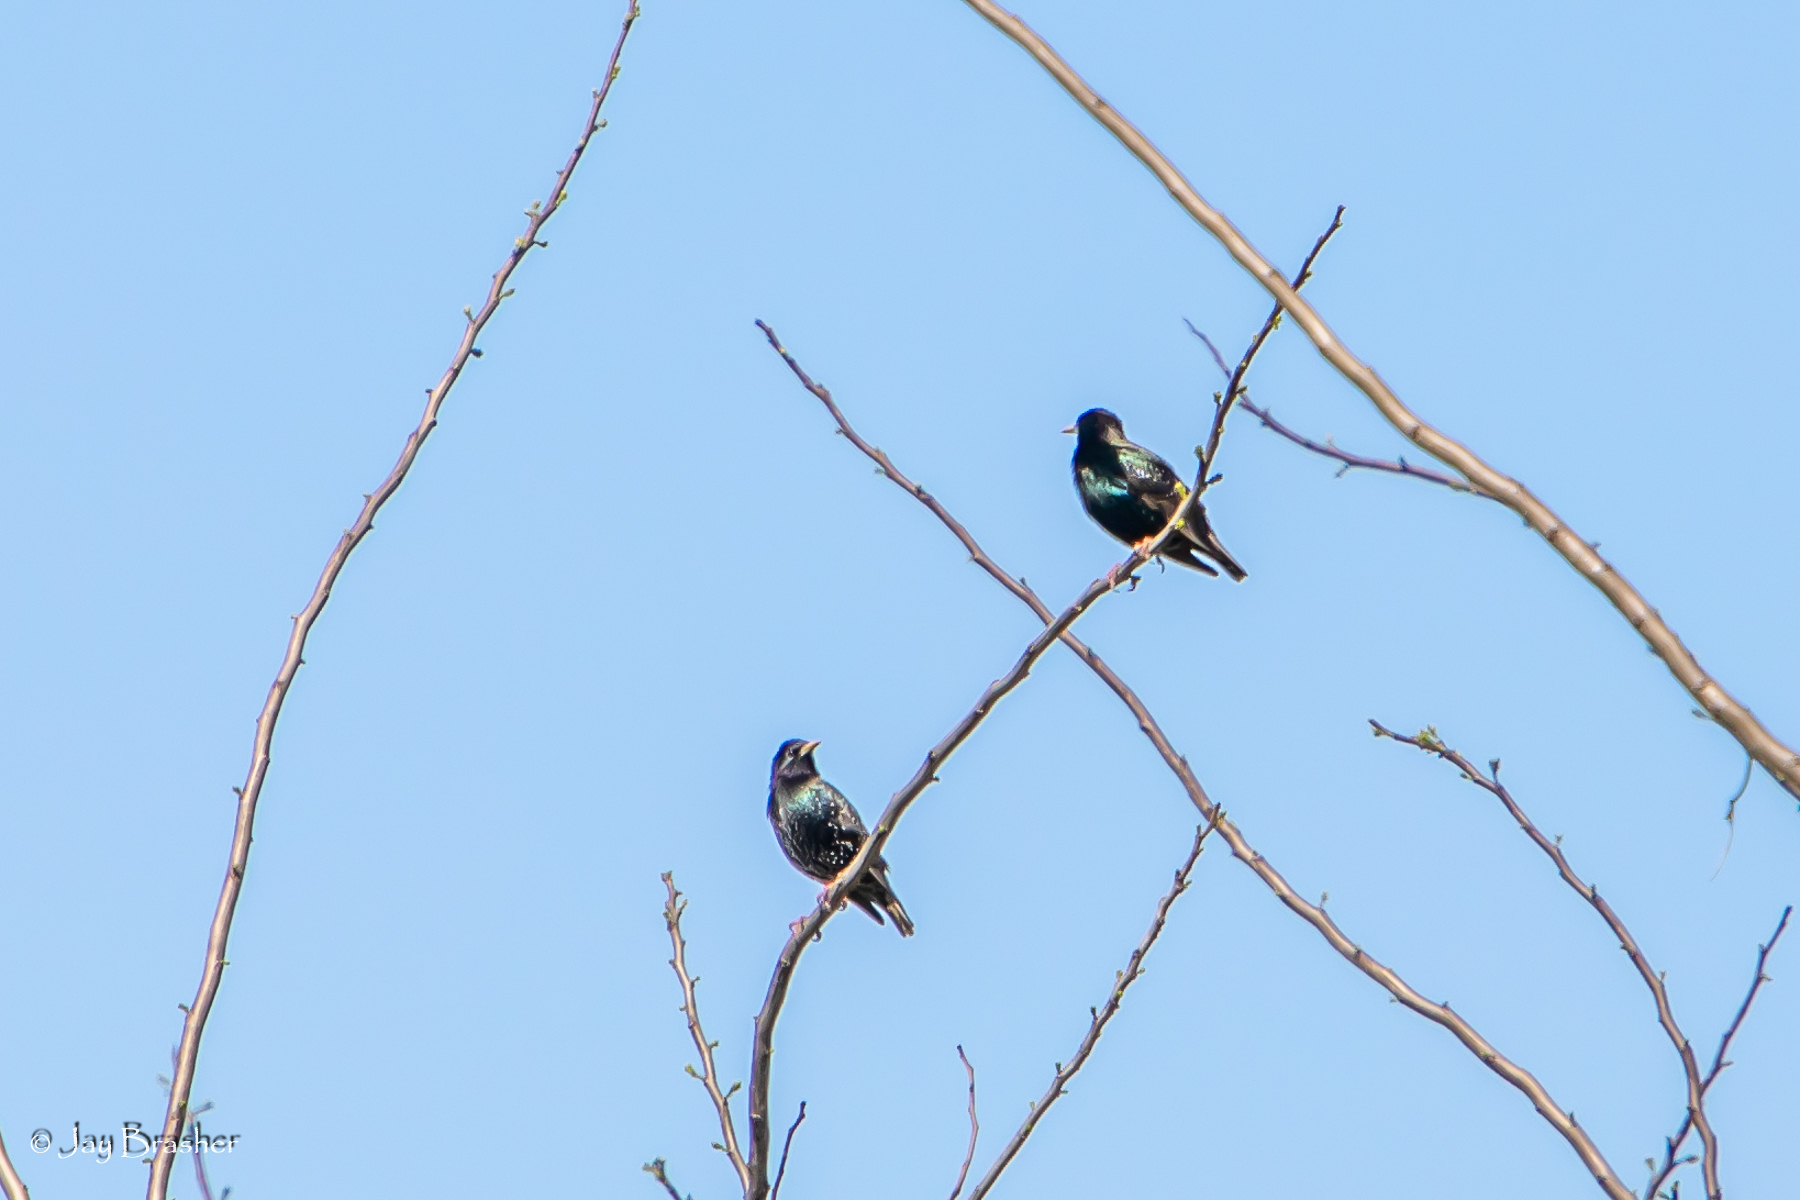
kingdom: Animalia
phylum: Chordata
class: Aves
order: Passeriformes
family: Sturnidae
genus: Sturnus
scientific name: Sturnus vulgaris
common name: Common starling
